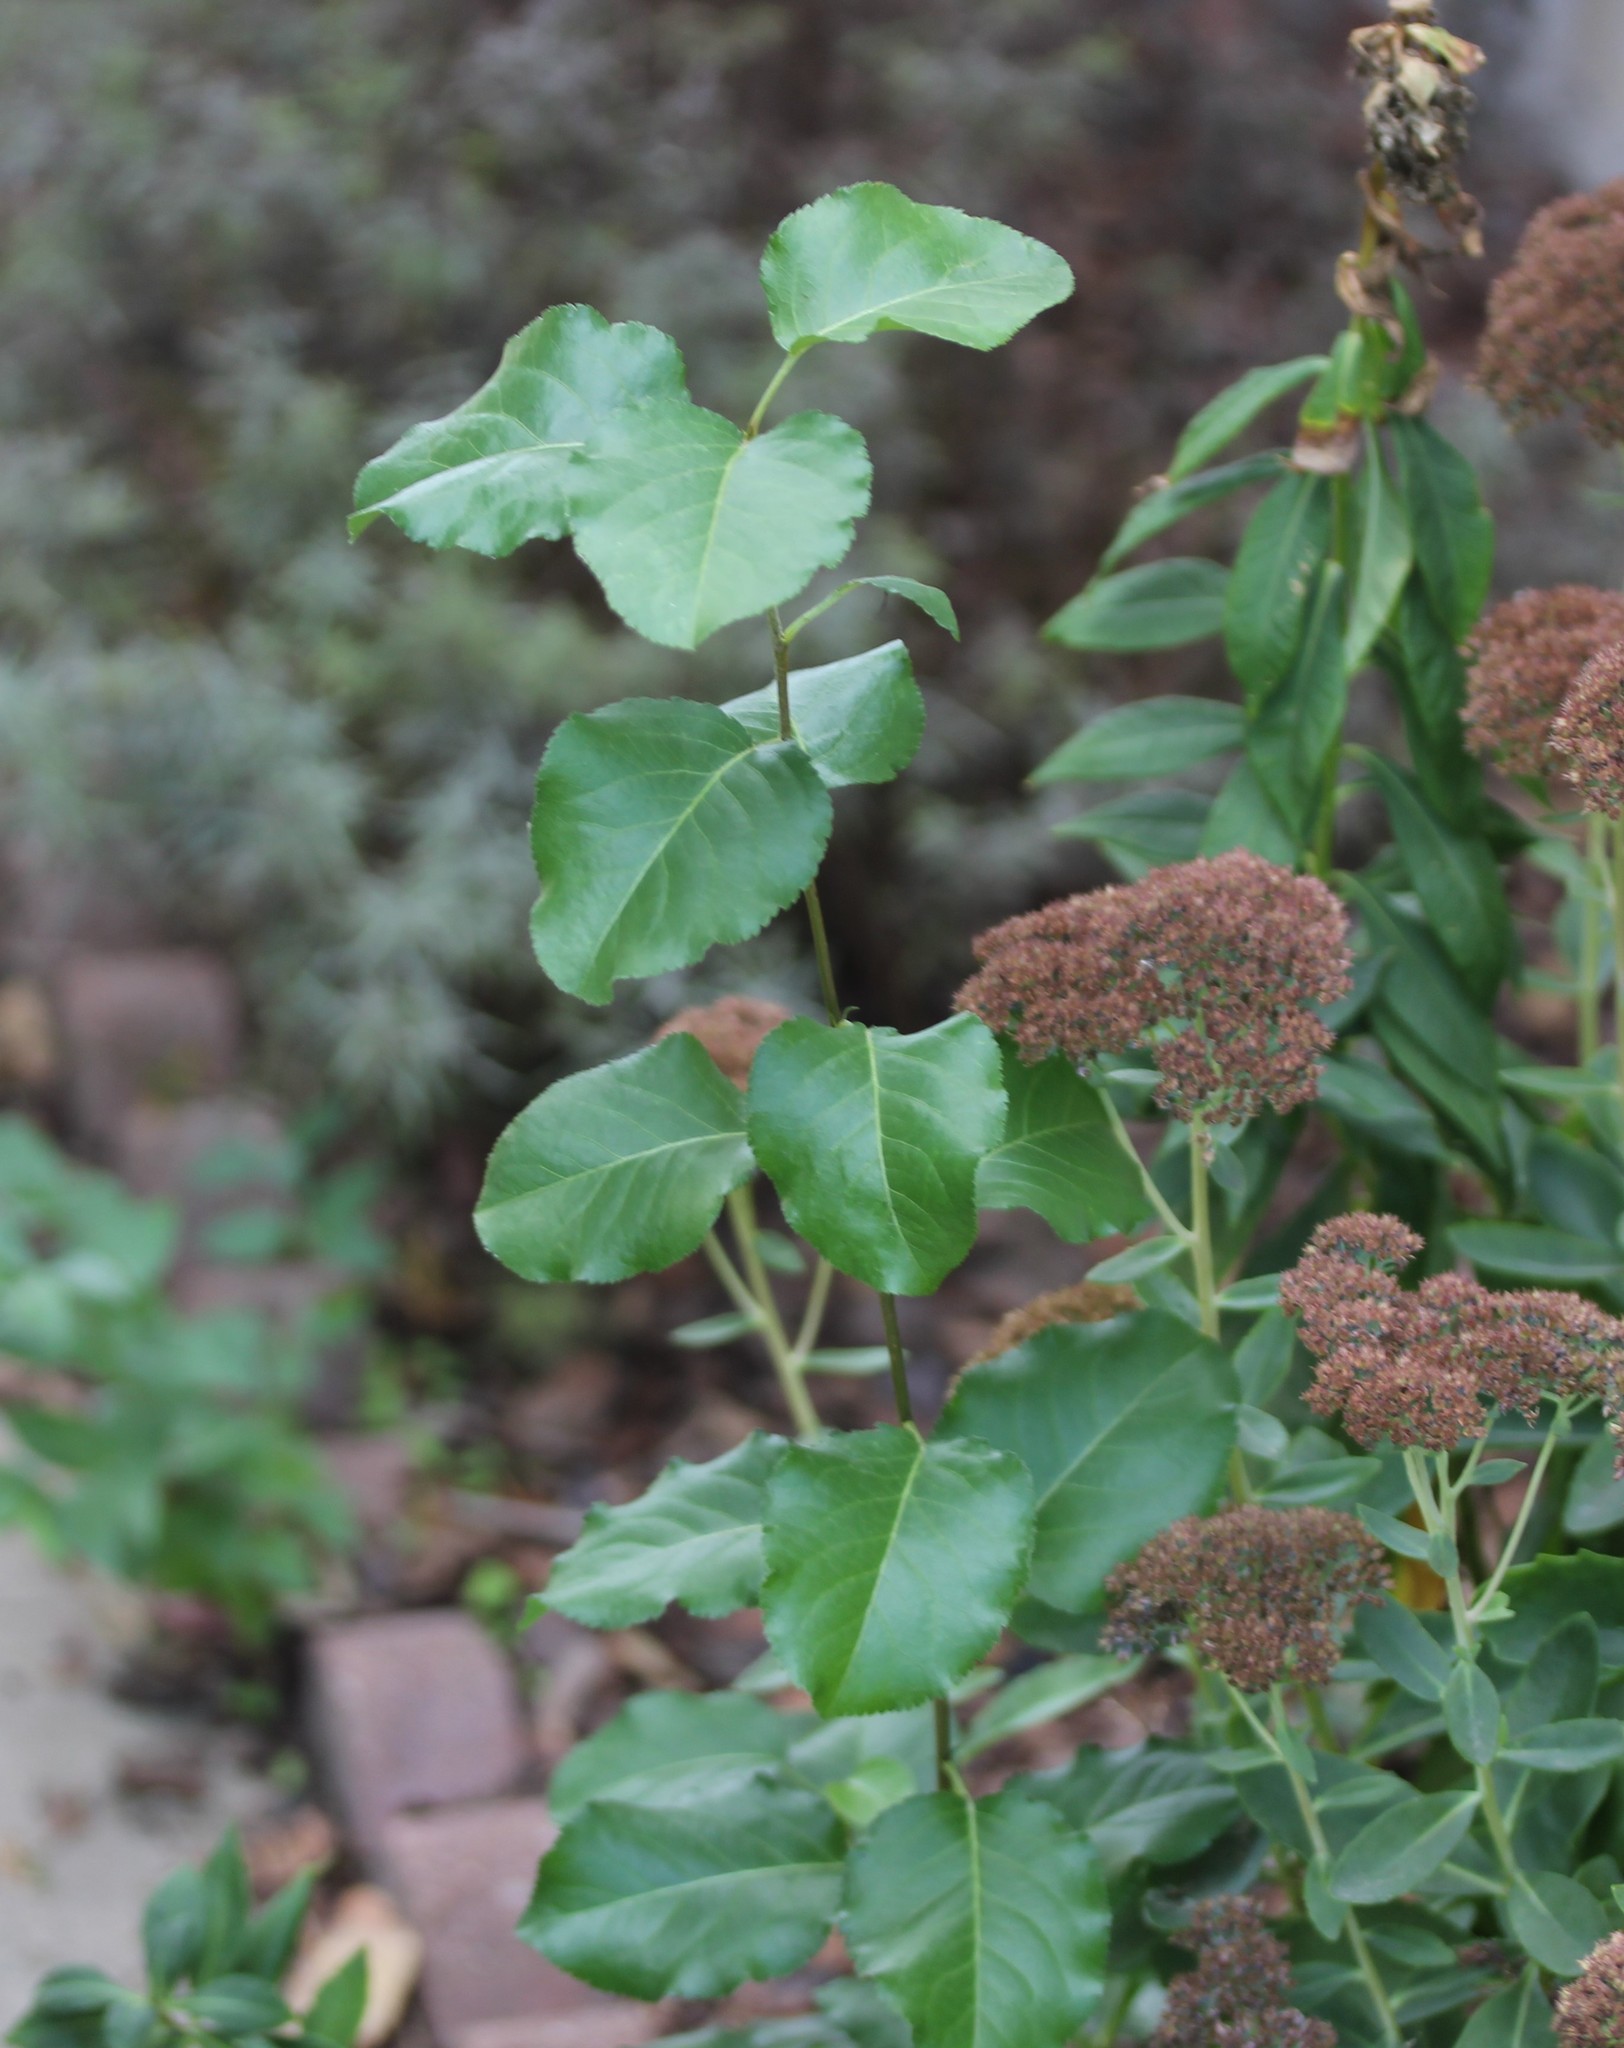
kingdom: Plantae
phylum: Tracheophyta
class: Magnoliopsida
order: Rosales
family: Rosaceae
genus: Pyrus
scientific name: Pyrus calleryana
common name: Callery pear
